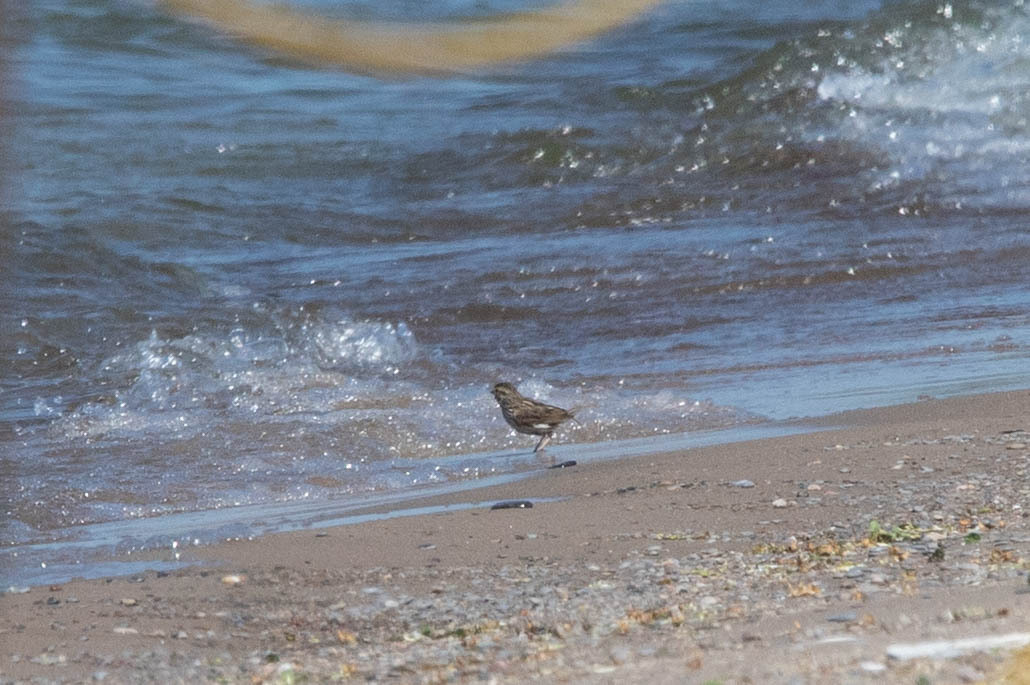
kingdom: Animalia
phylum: Chordata
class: Aves
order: Passeriformes
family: Passerellidae
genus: Melospiza
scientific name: Melospiza melodia
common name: Song sparrow
